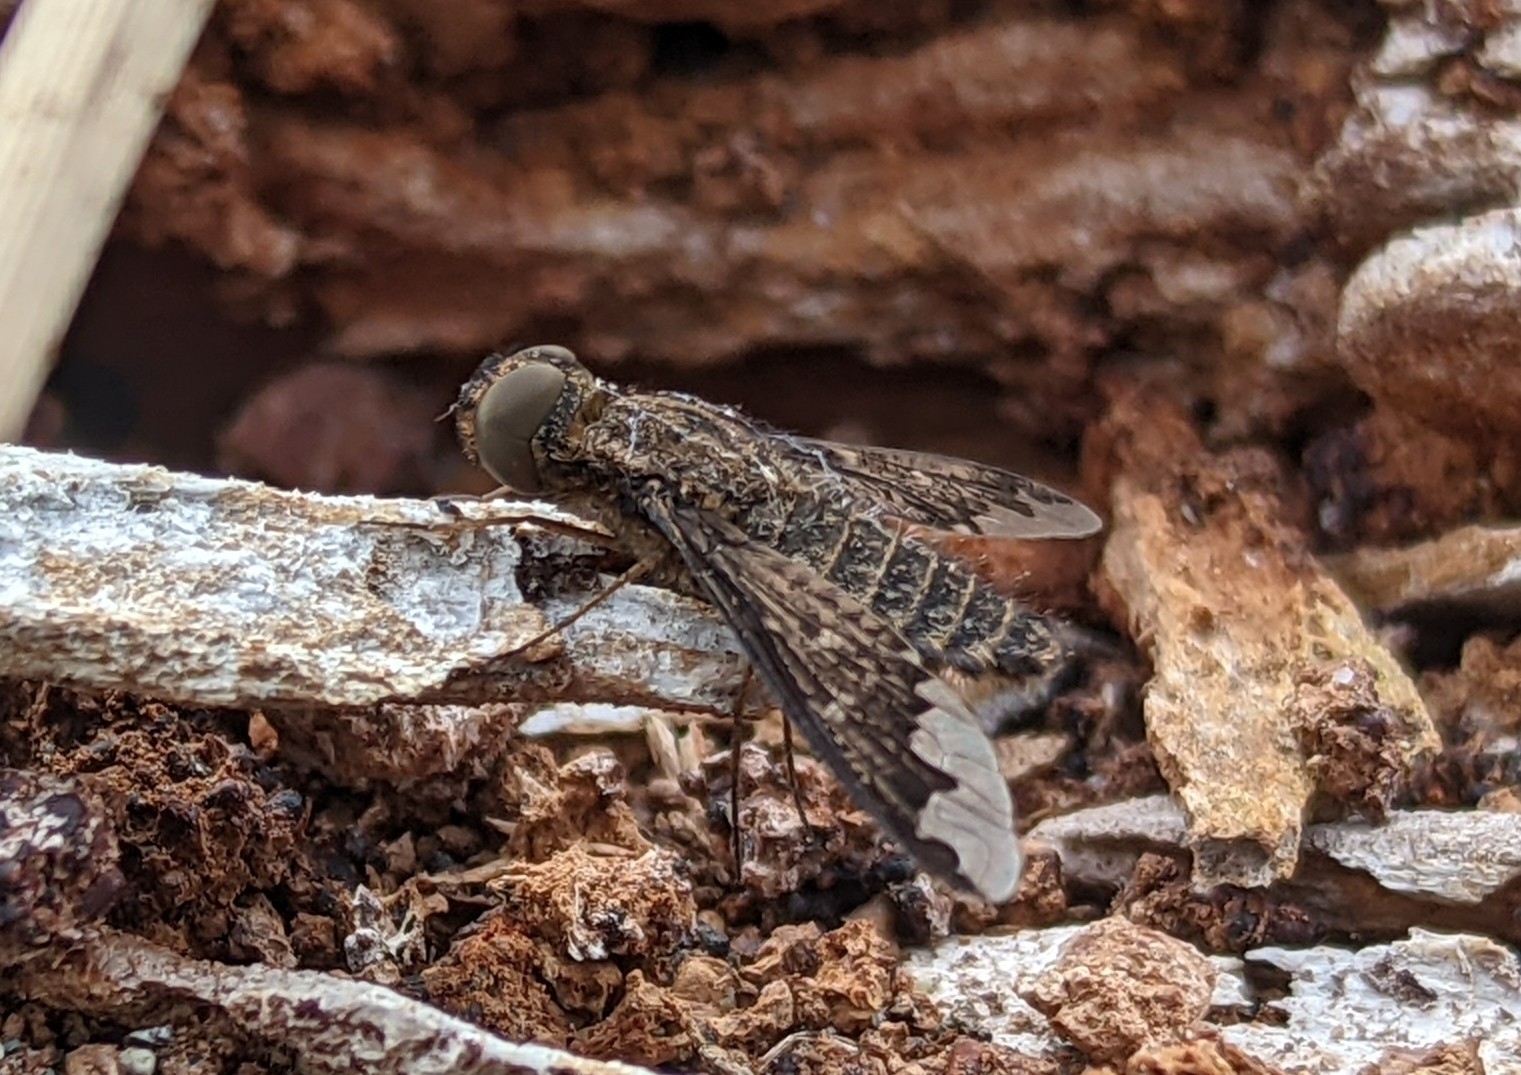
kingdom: Animalia
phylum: Arthropoda
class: Insecta
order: Diptera
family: Bombyliidae
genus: Hemipenthes
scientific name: Hemipenthes sinuosus
